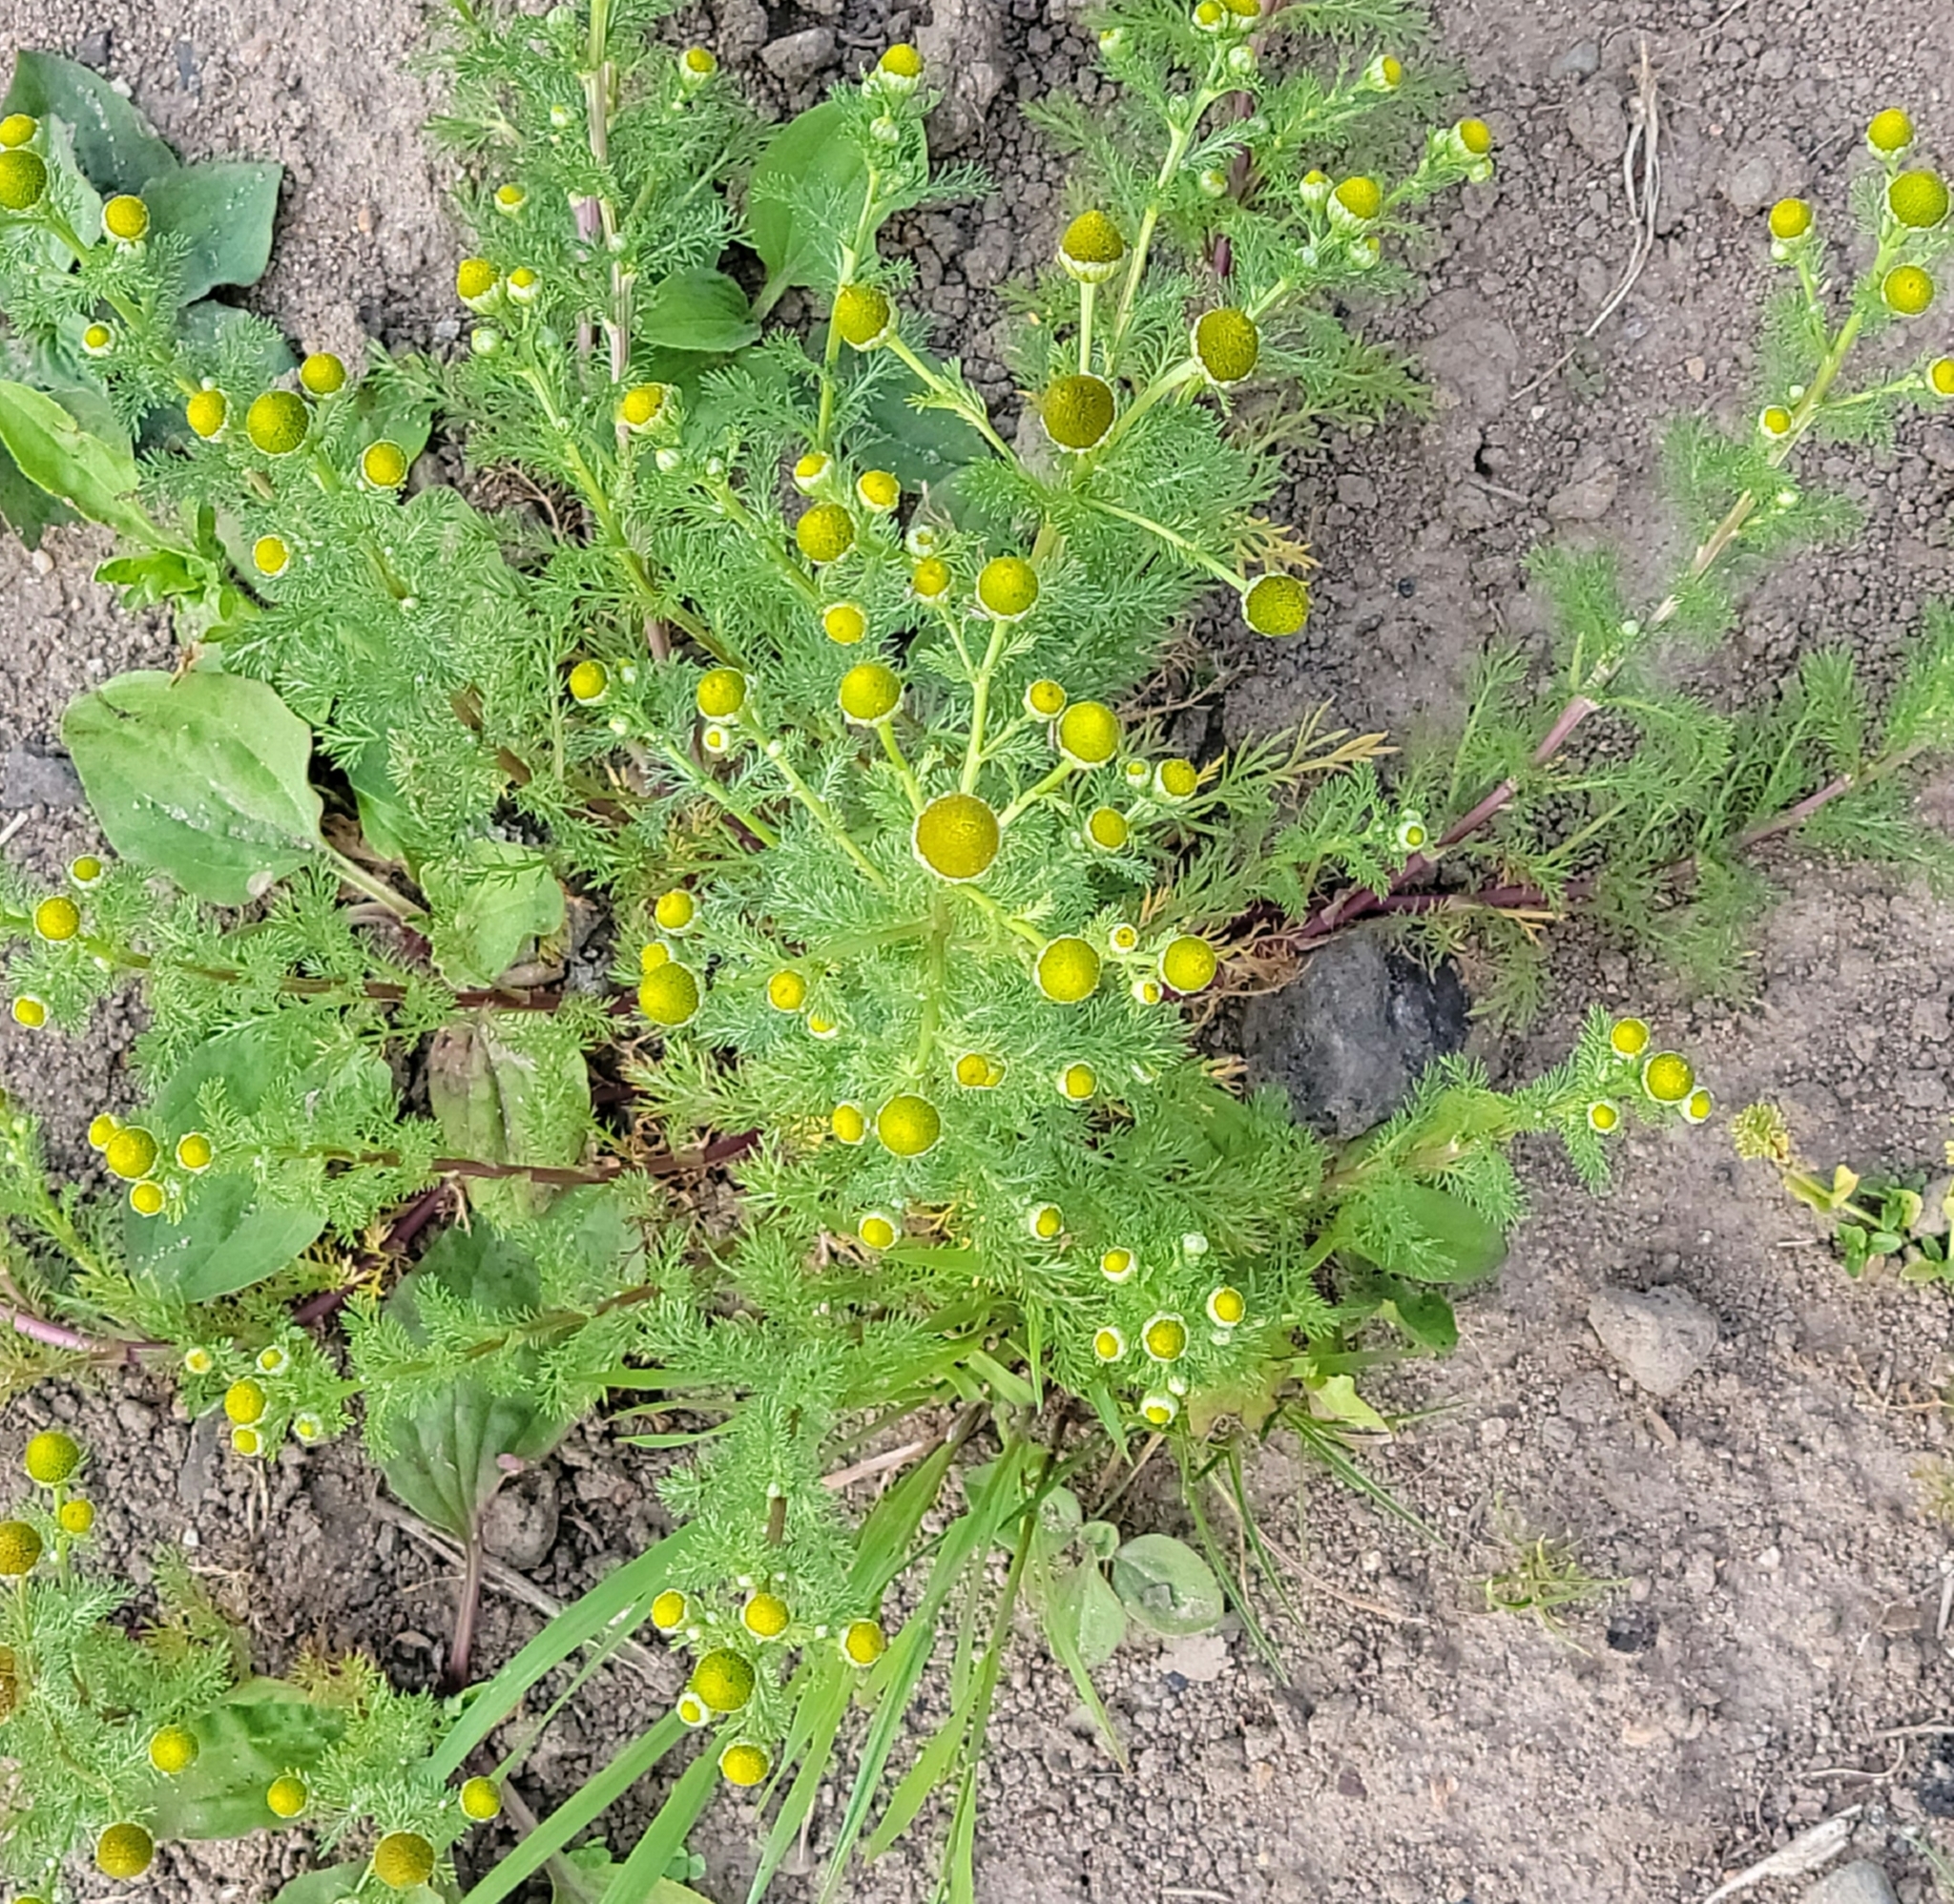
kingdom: Plantae
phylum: Tracheophyta
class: Magnoliopsida
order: Asterales
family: Asteraceae
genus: Matricaria
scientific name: Matricaria discoidea
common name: Disc mayweed
